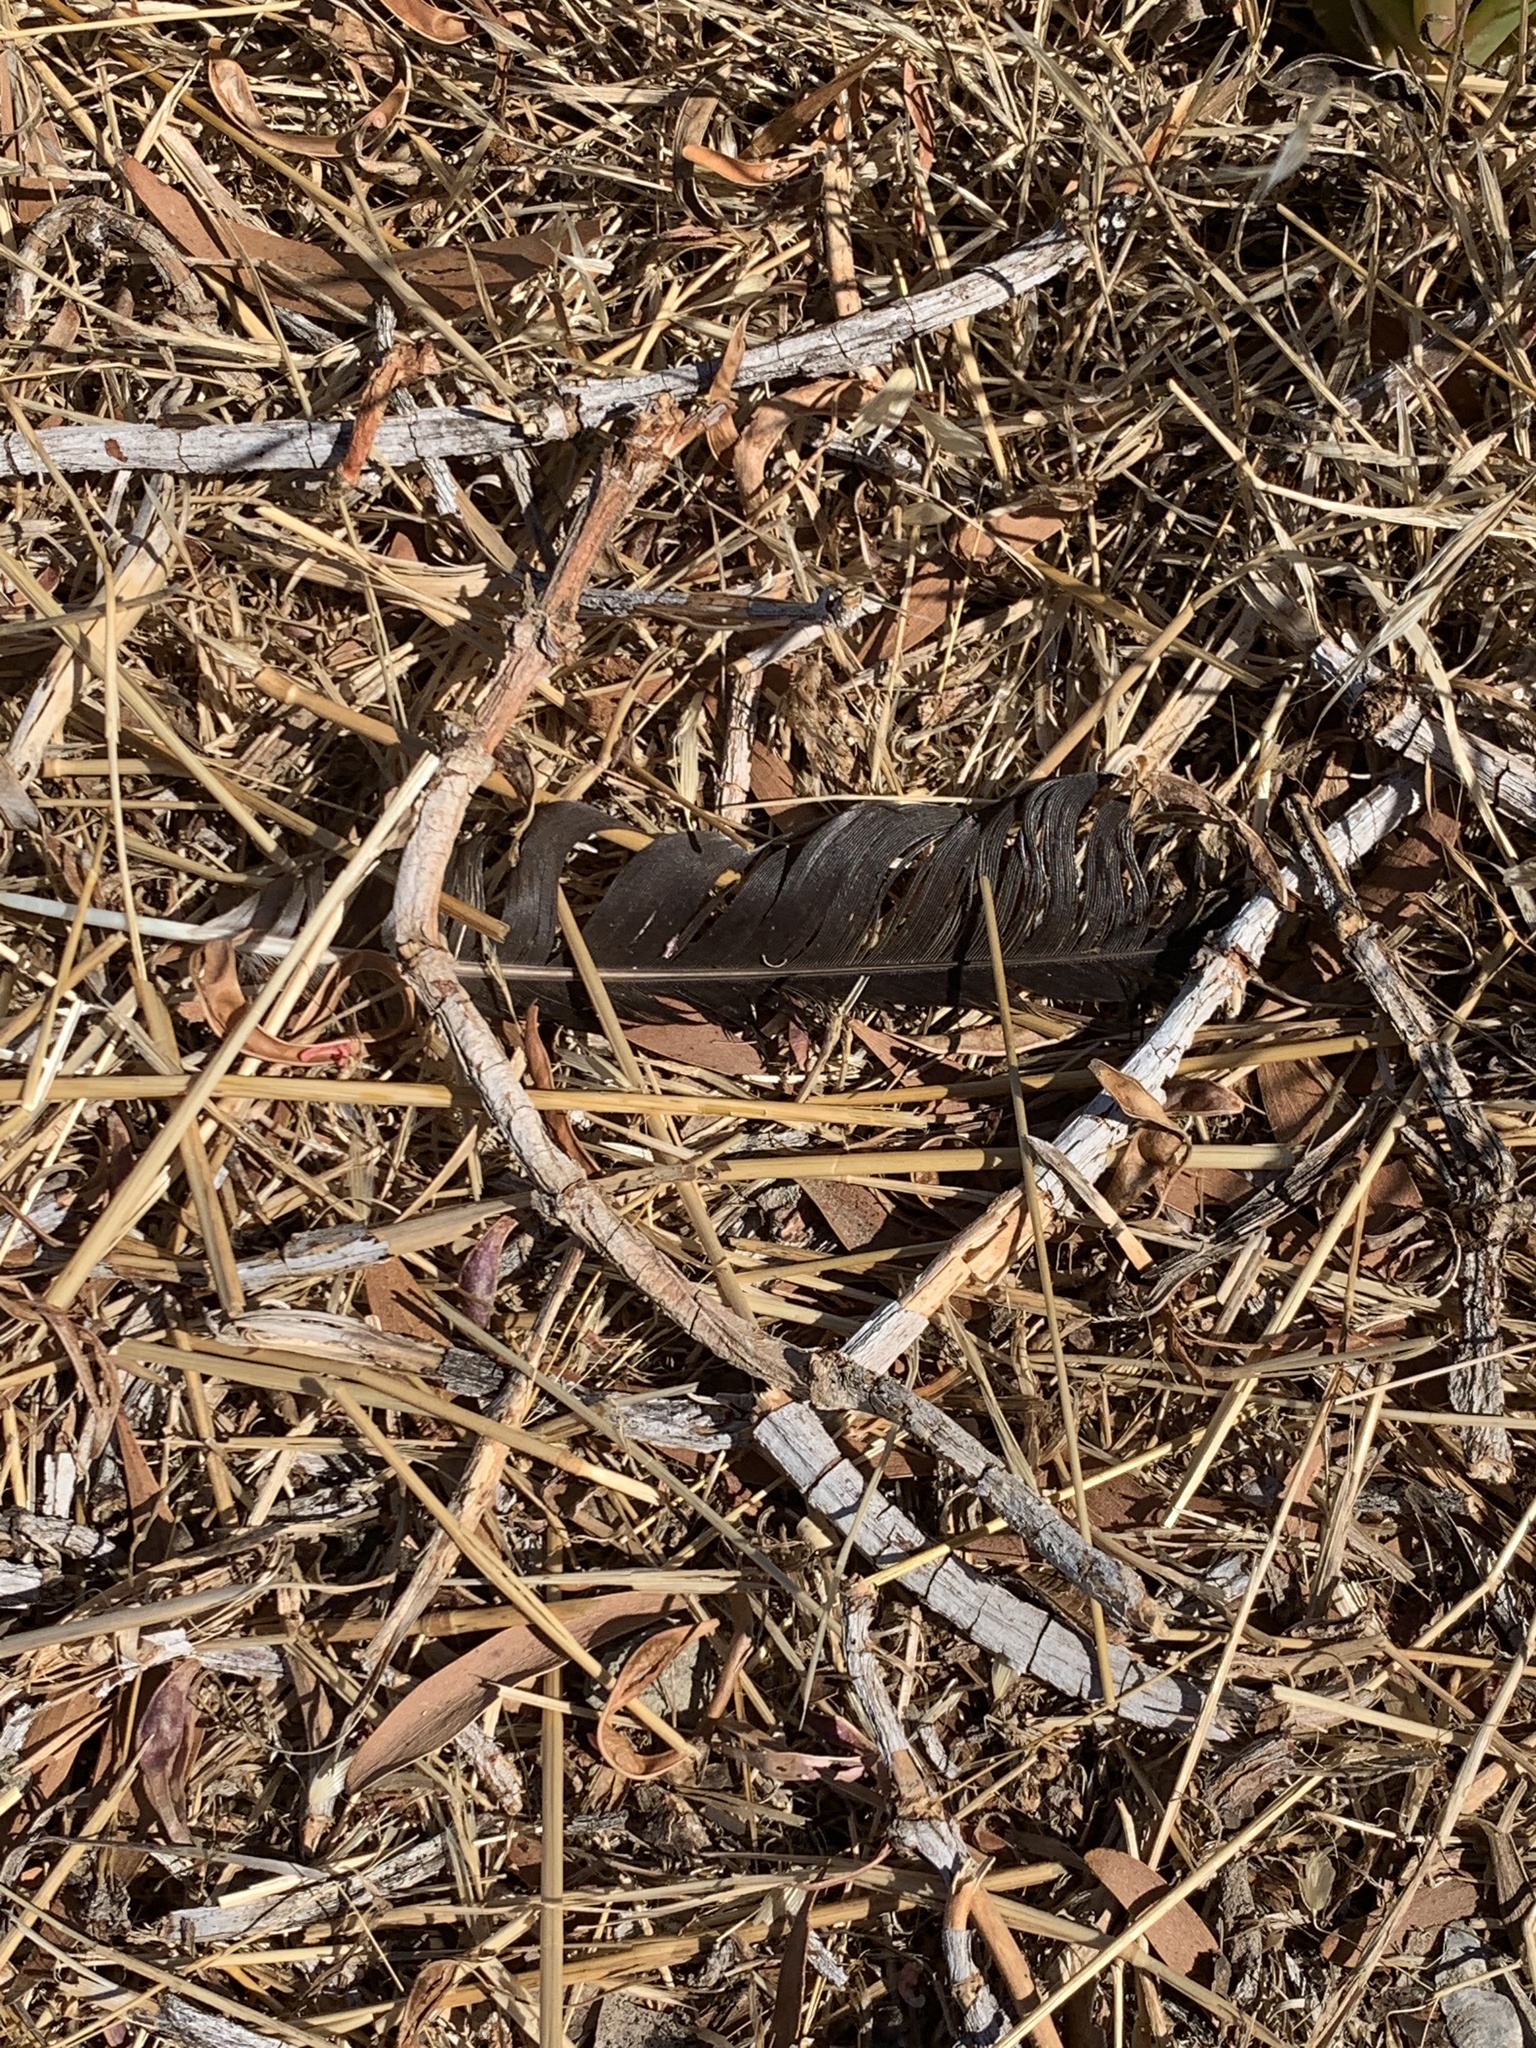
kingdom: Animalia
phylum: Chordata
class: Aves
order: Passeriformes
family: Corvidae
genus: Corvus
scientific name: Corvus brachyrhynchos
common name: American crow
